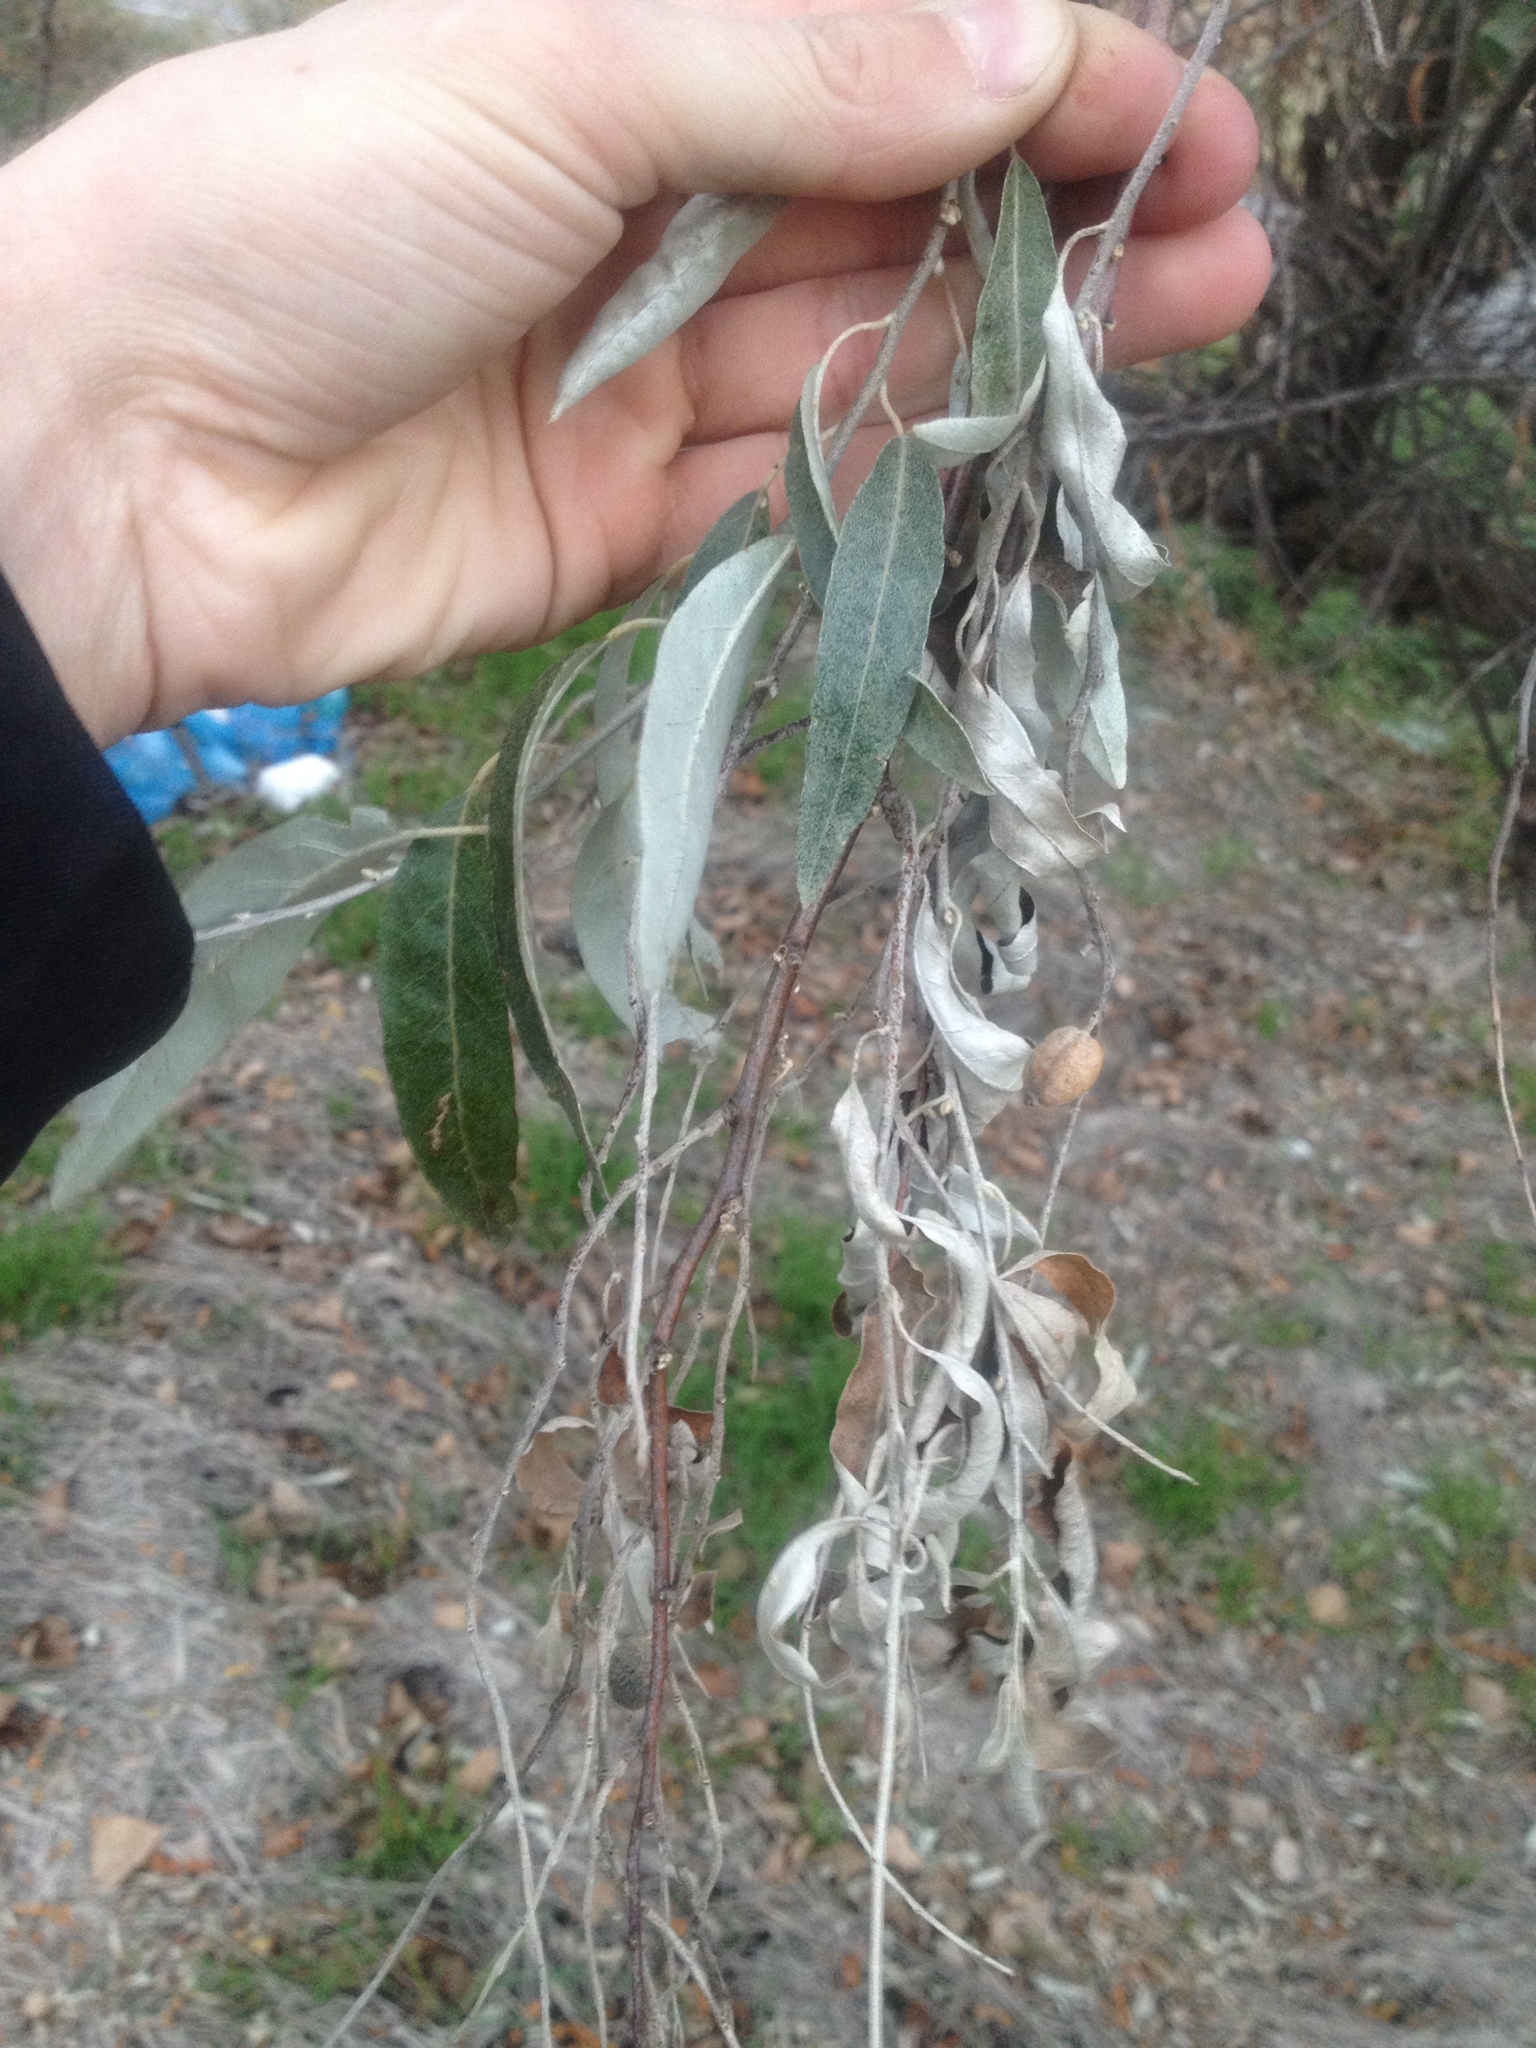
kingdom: Plantae
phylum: Tracheophyta
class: Magnoliopsida
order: Rosales
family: Elaeagnaceae
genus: Elaeagnus
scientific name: Elaeagnus angustifolia
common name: Russian olive
